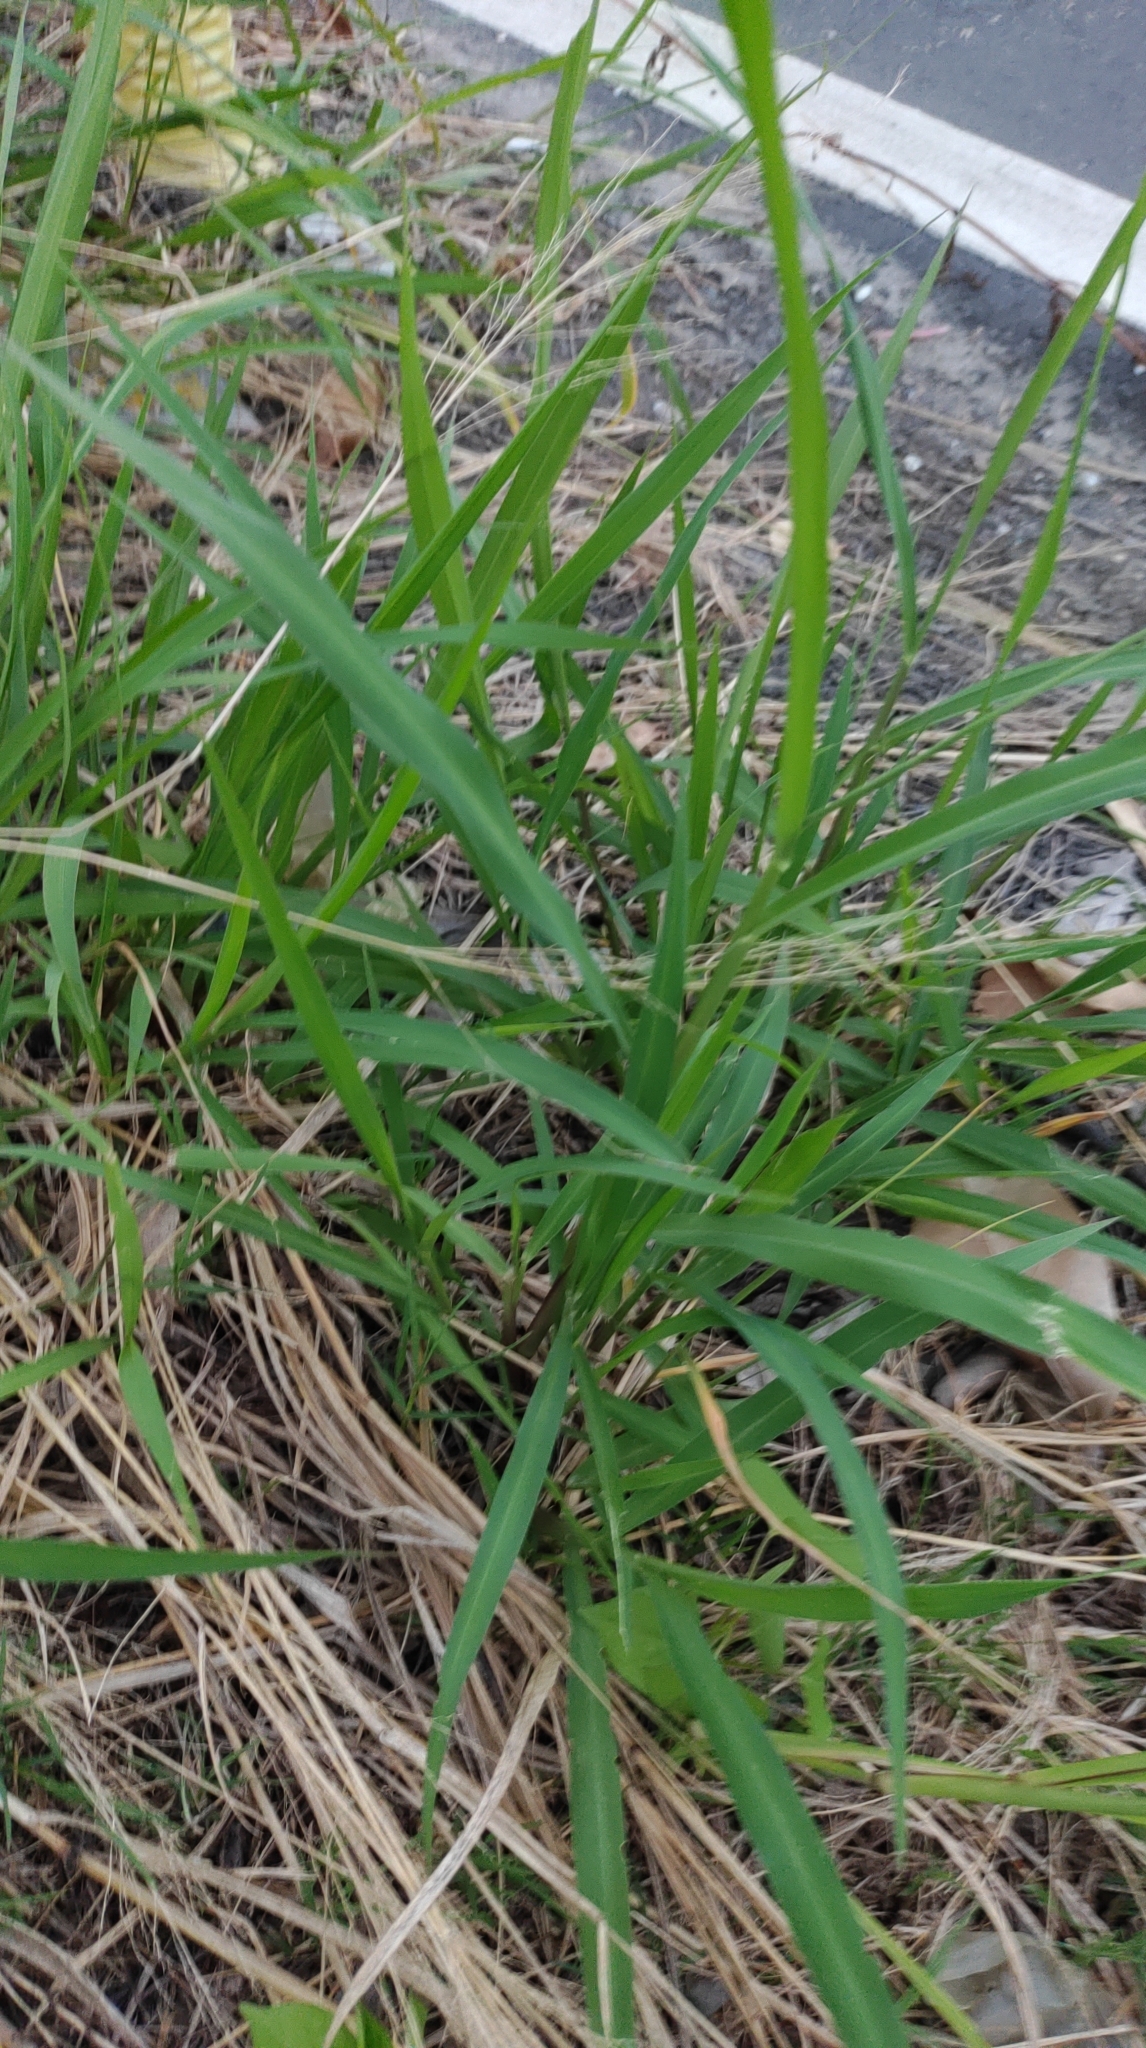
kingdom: Plantae
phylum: Tracheophyta
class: Liliopsida
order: Poales
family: Poaceae
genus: Megathyrsus
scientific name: Megathyrsus maximus
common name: Guineagrass
